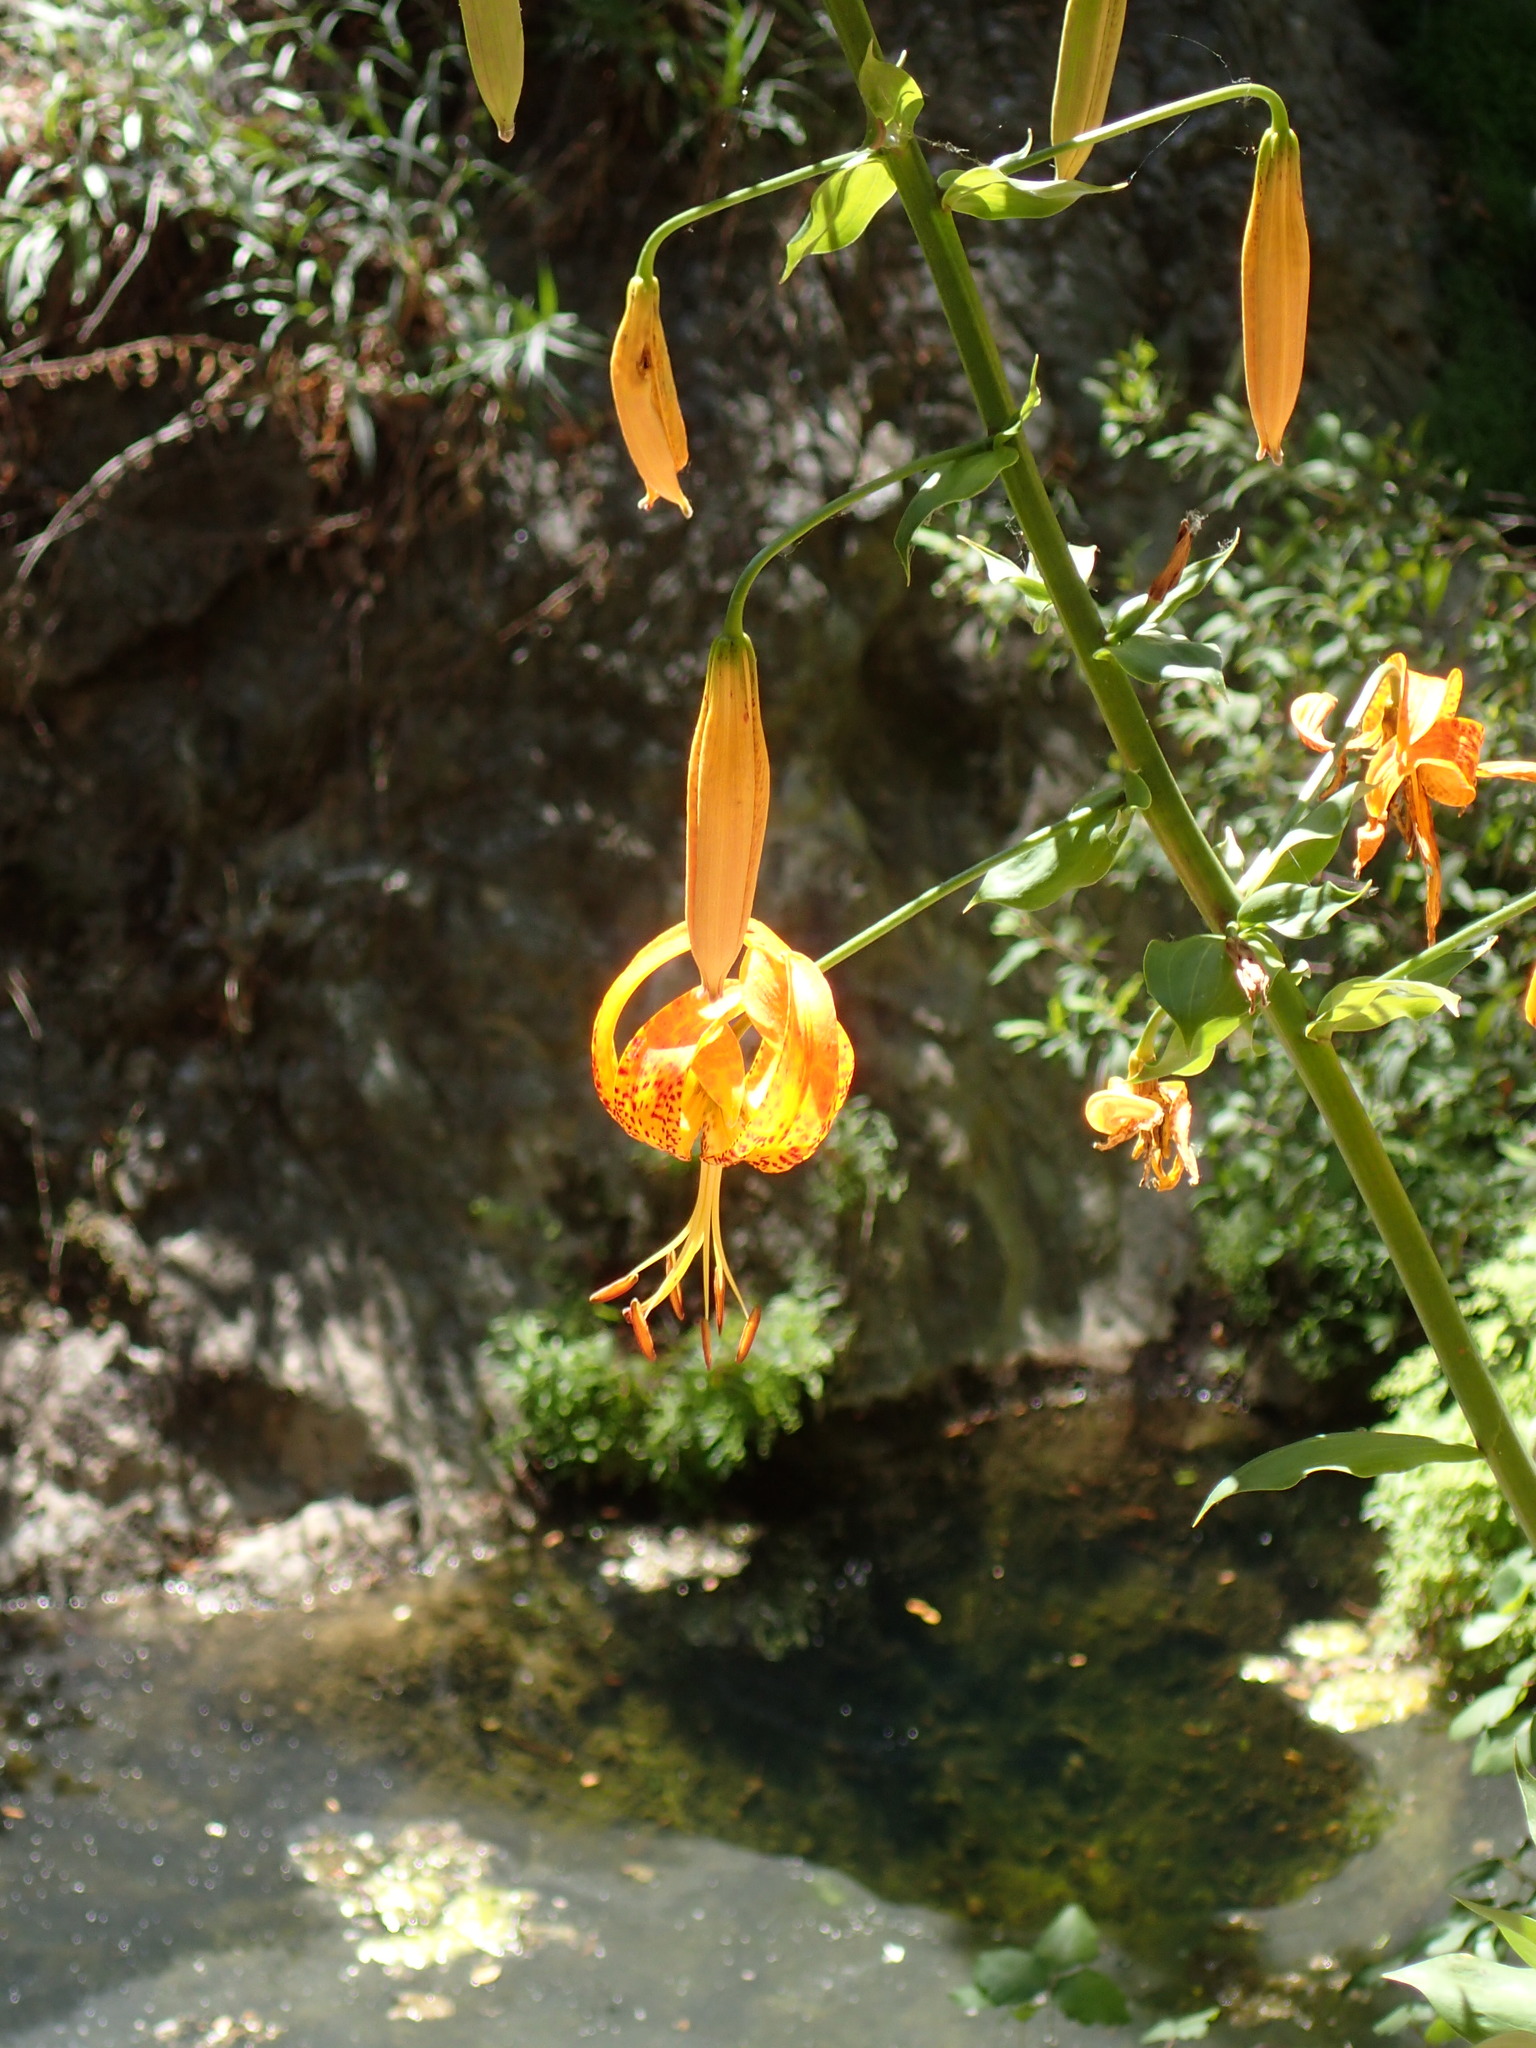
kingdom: Plantae
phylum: Tracheophyta
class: Liliopsida
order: Liliales
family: Liliaceae
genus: Lilium
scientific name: Lilium humboldtii
